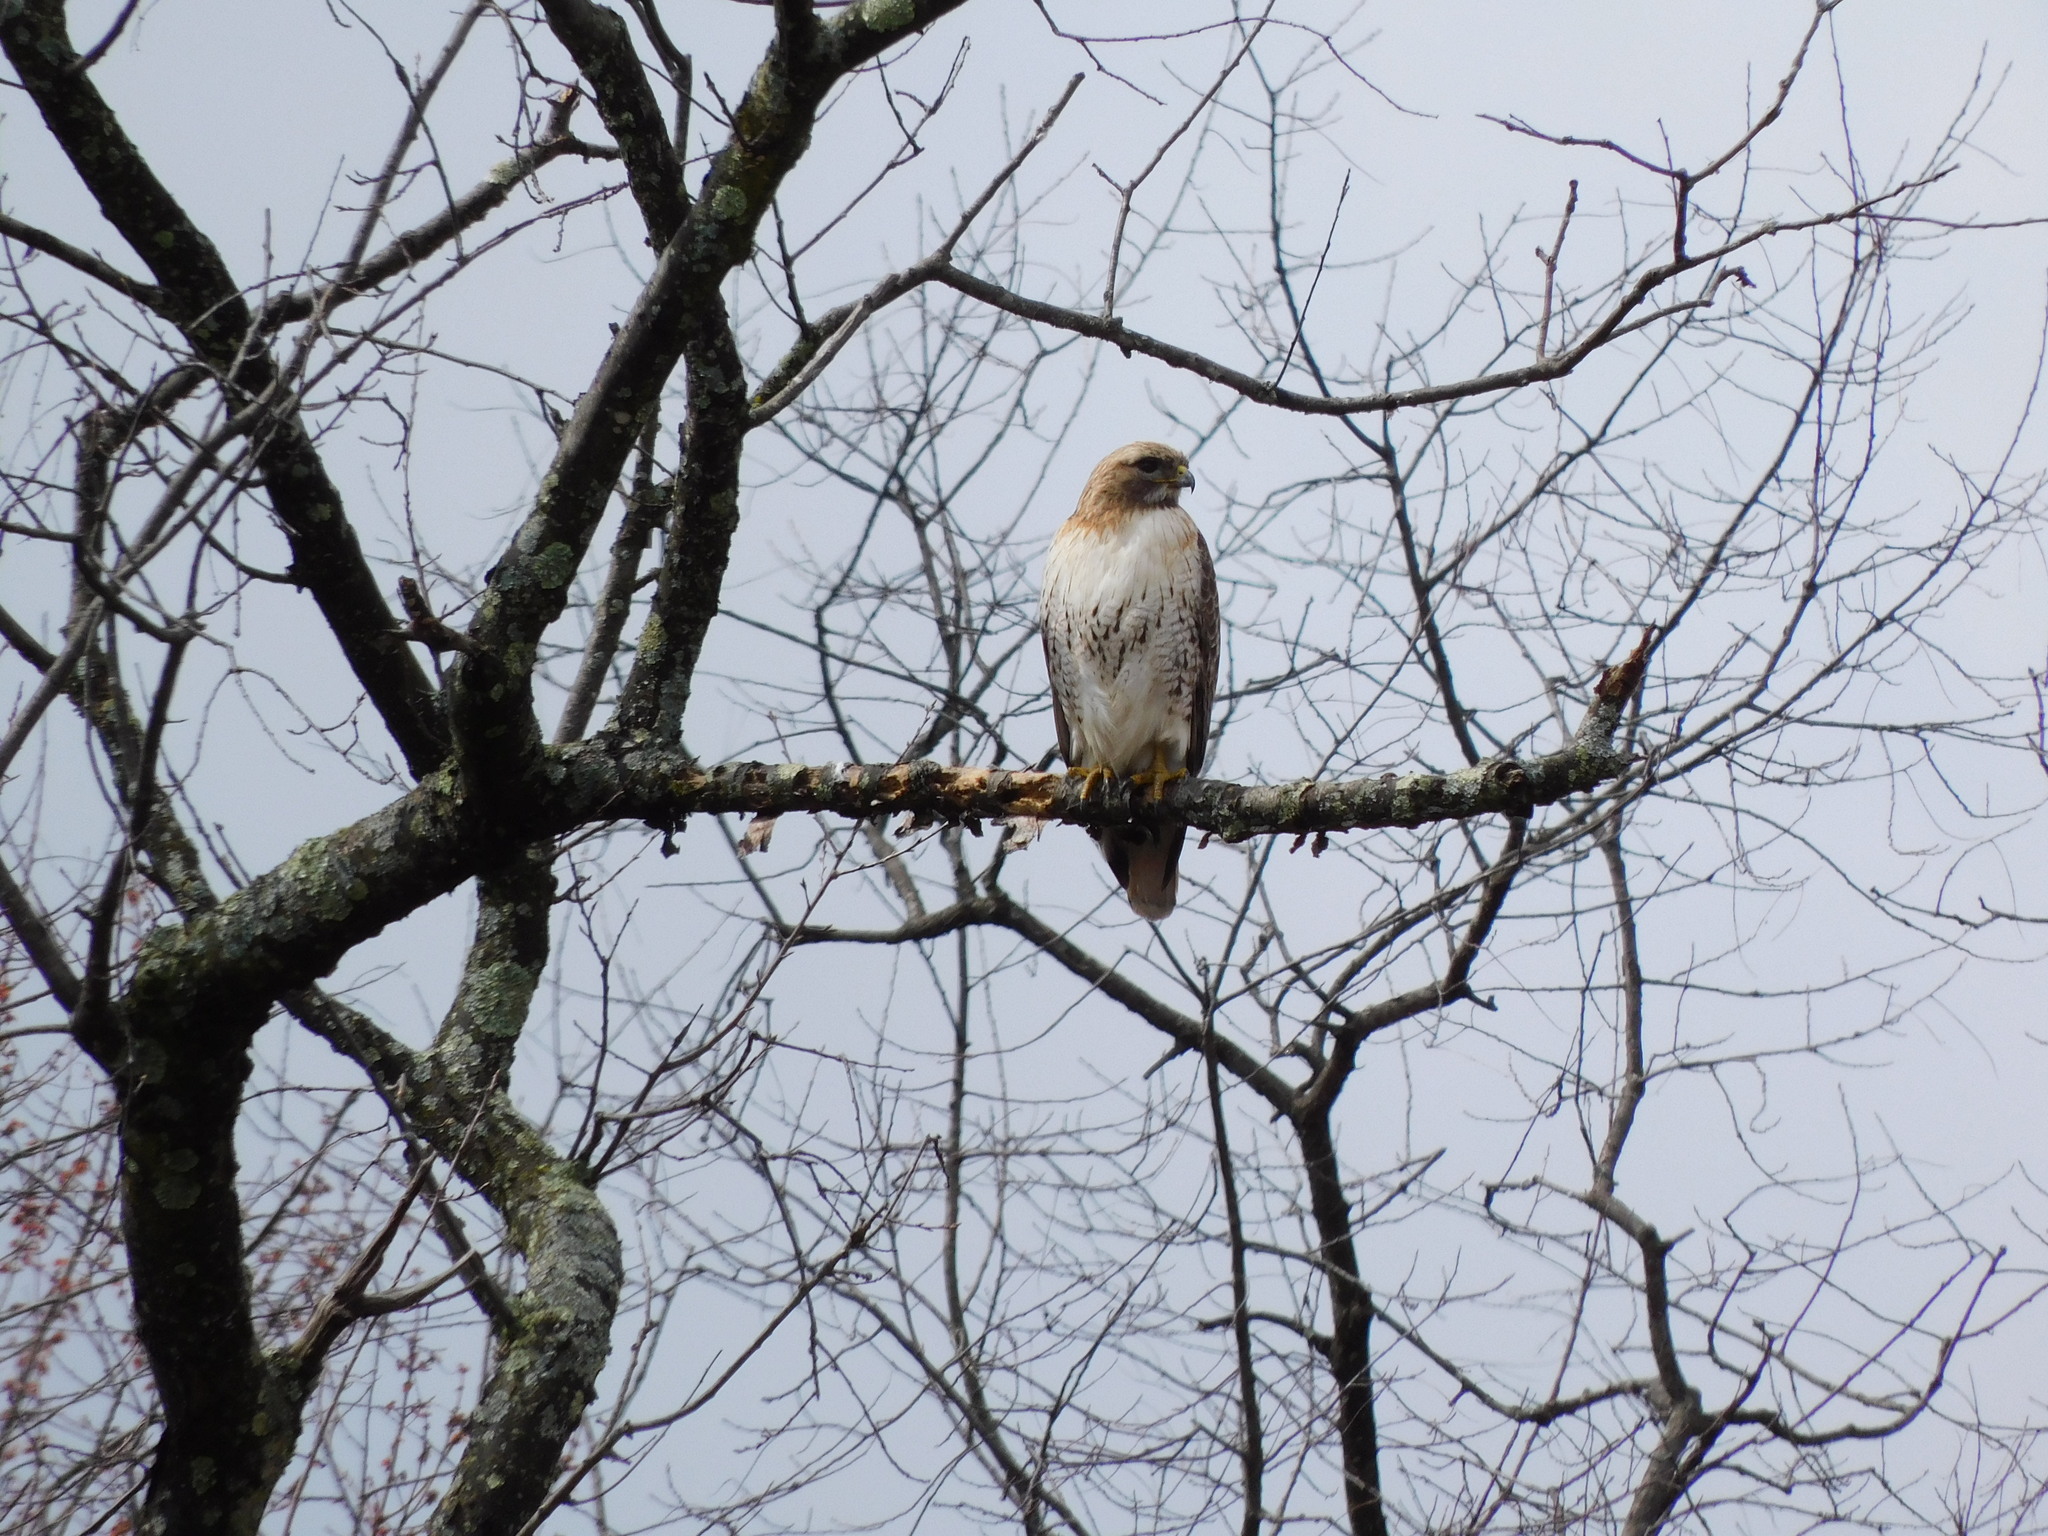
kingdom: Animalia
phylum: Chordata
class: Aves
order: Accipitriformes
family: Accipitridae
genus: Buteo
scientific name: Buteo jamaicensis
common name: Red-tailed hawk
